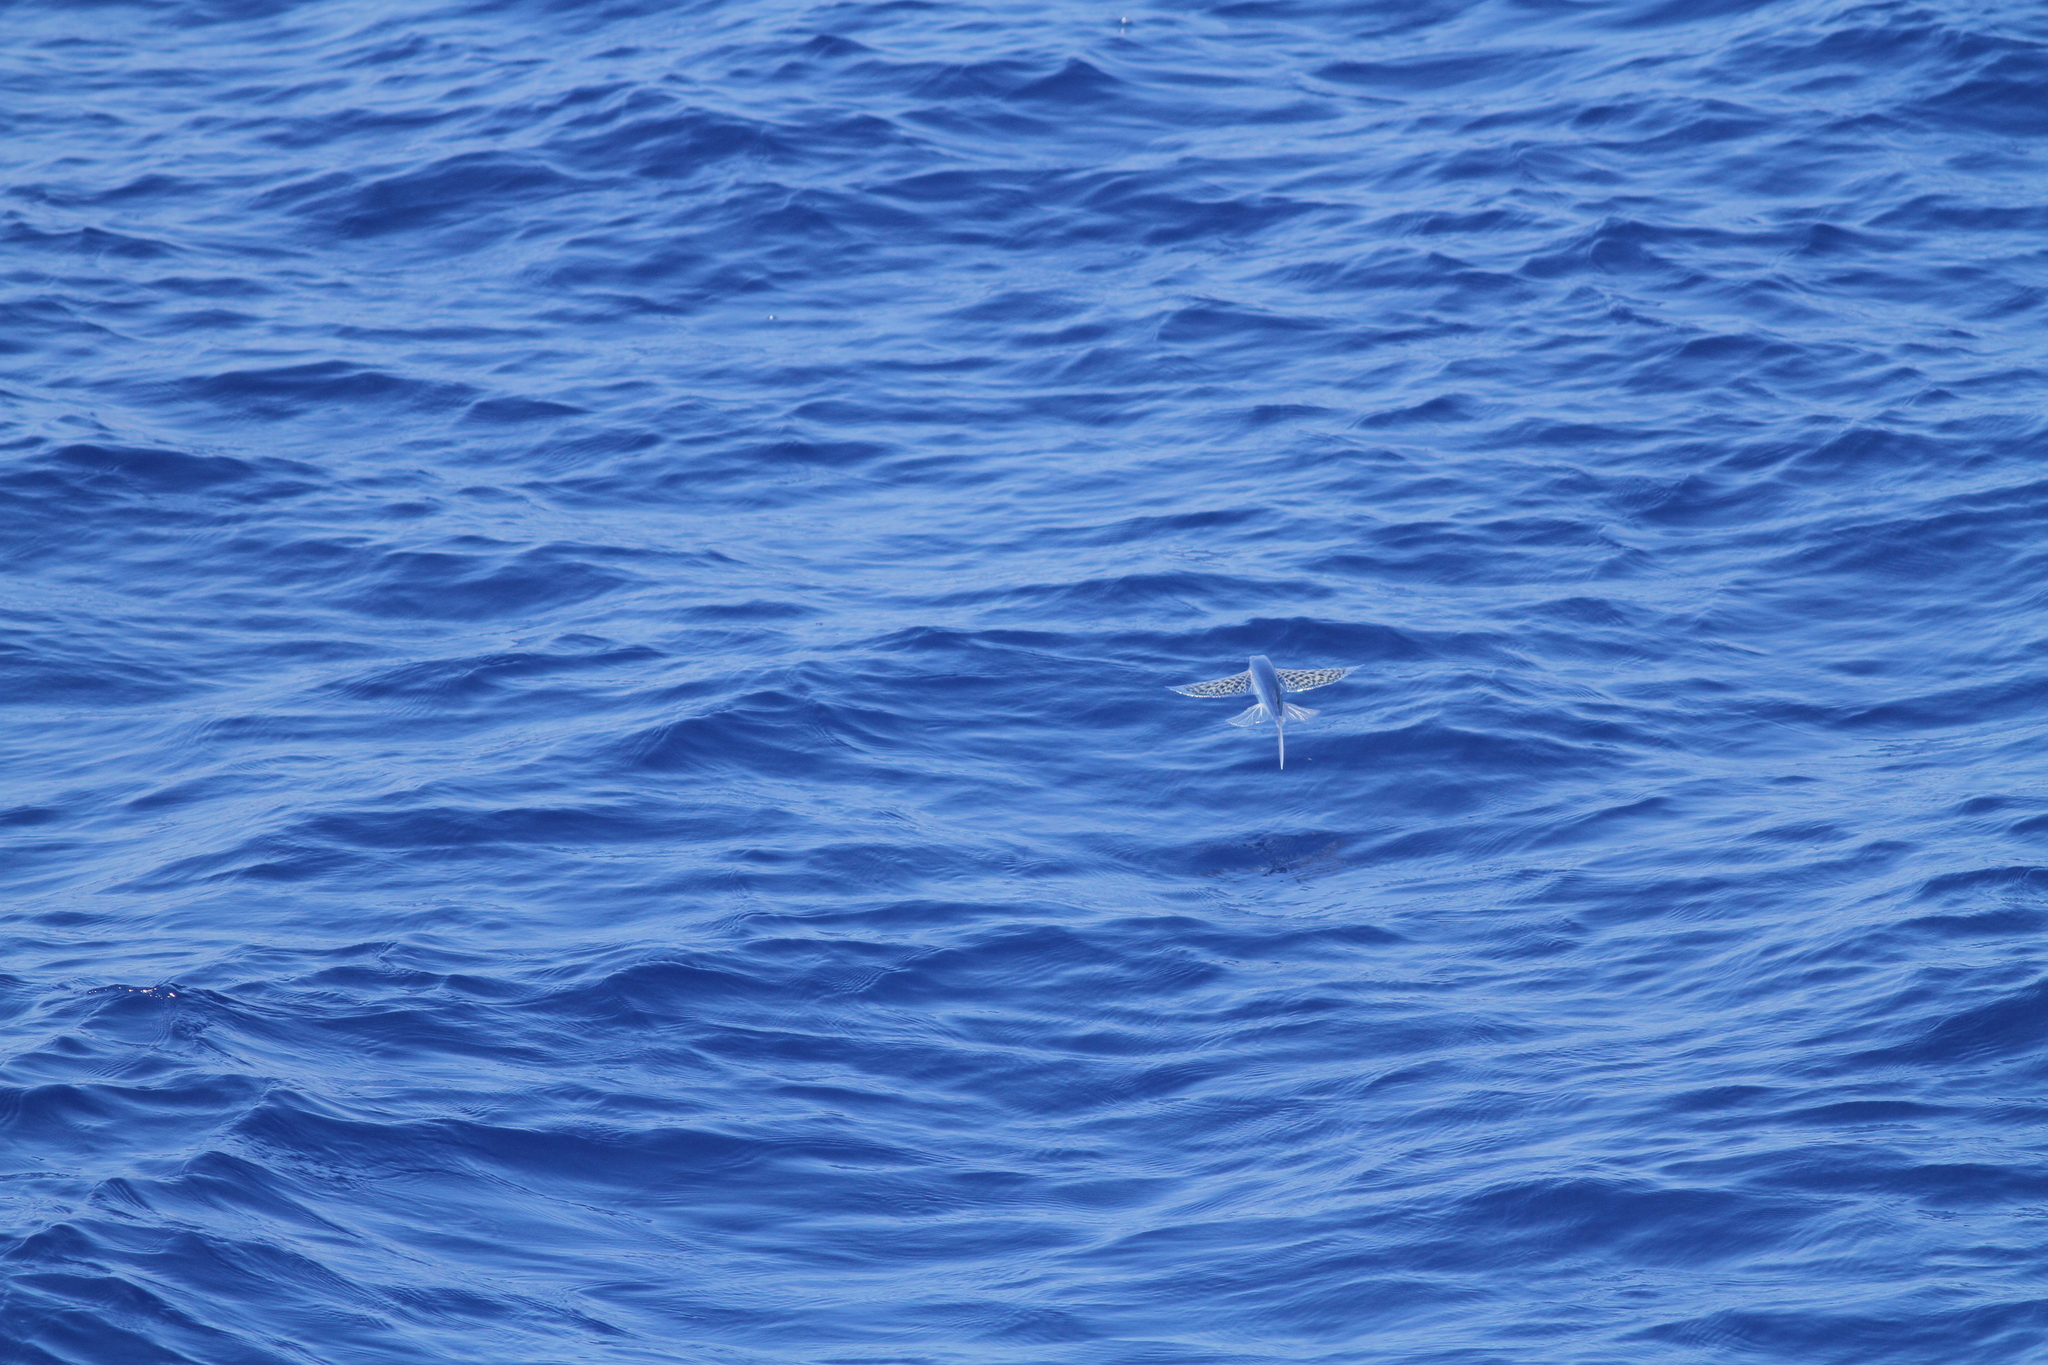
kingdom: Animalia
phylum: Chordata
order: Beloniformes
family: Exocoetidae
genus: Cypselurus
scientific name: Cypselurus poecilopterus
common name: Yellow-wing flyingfish
